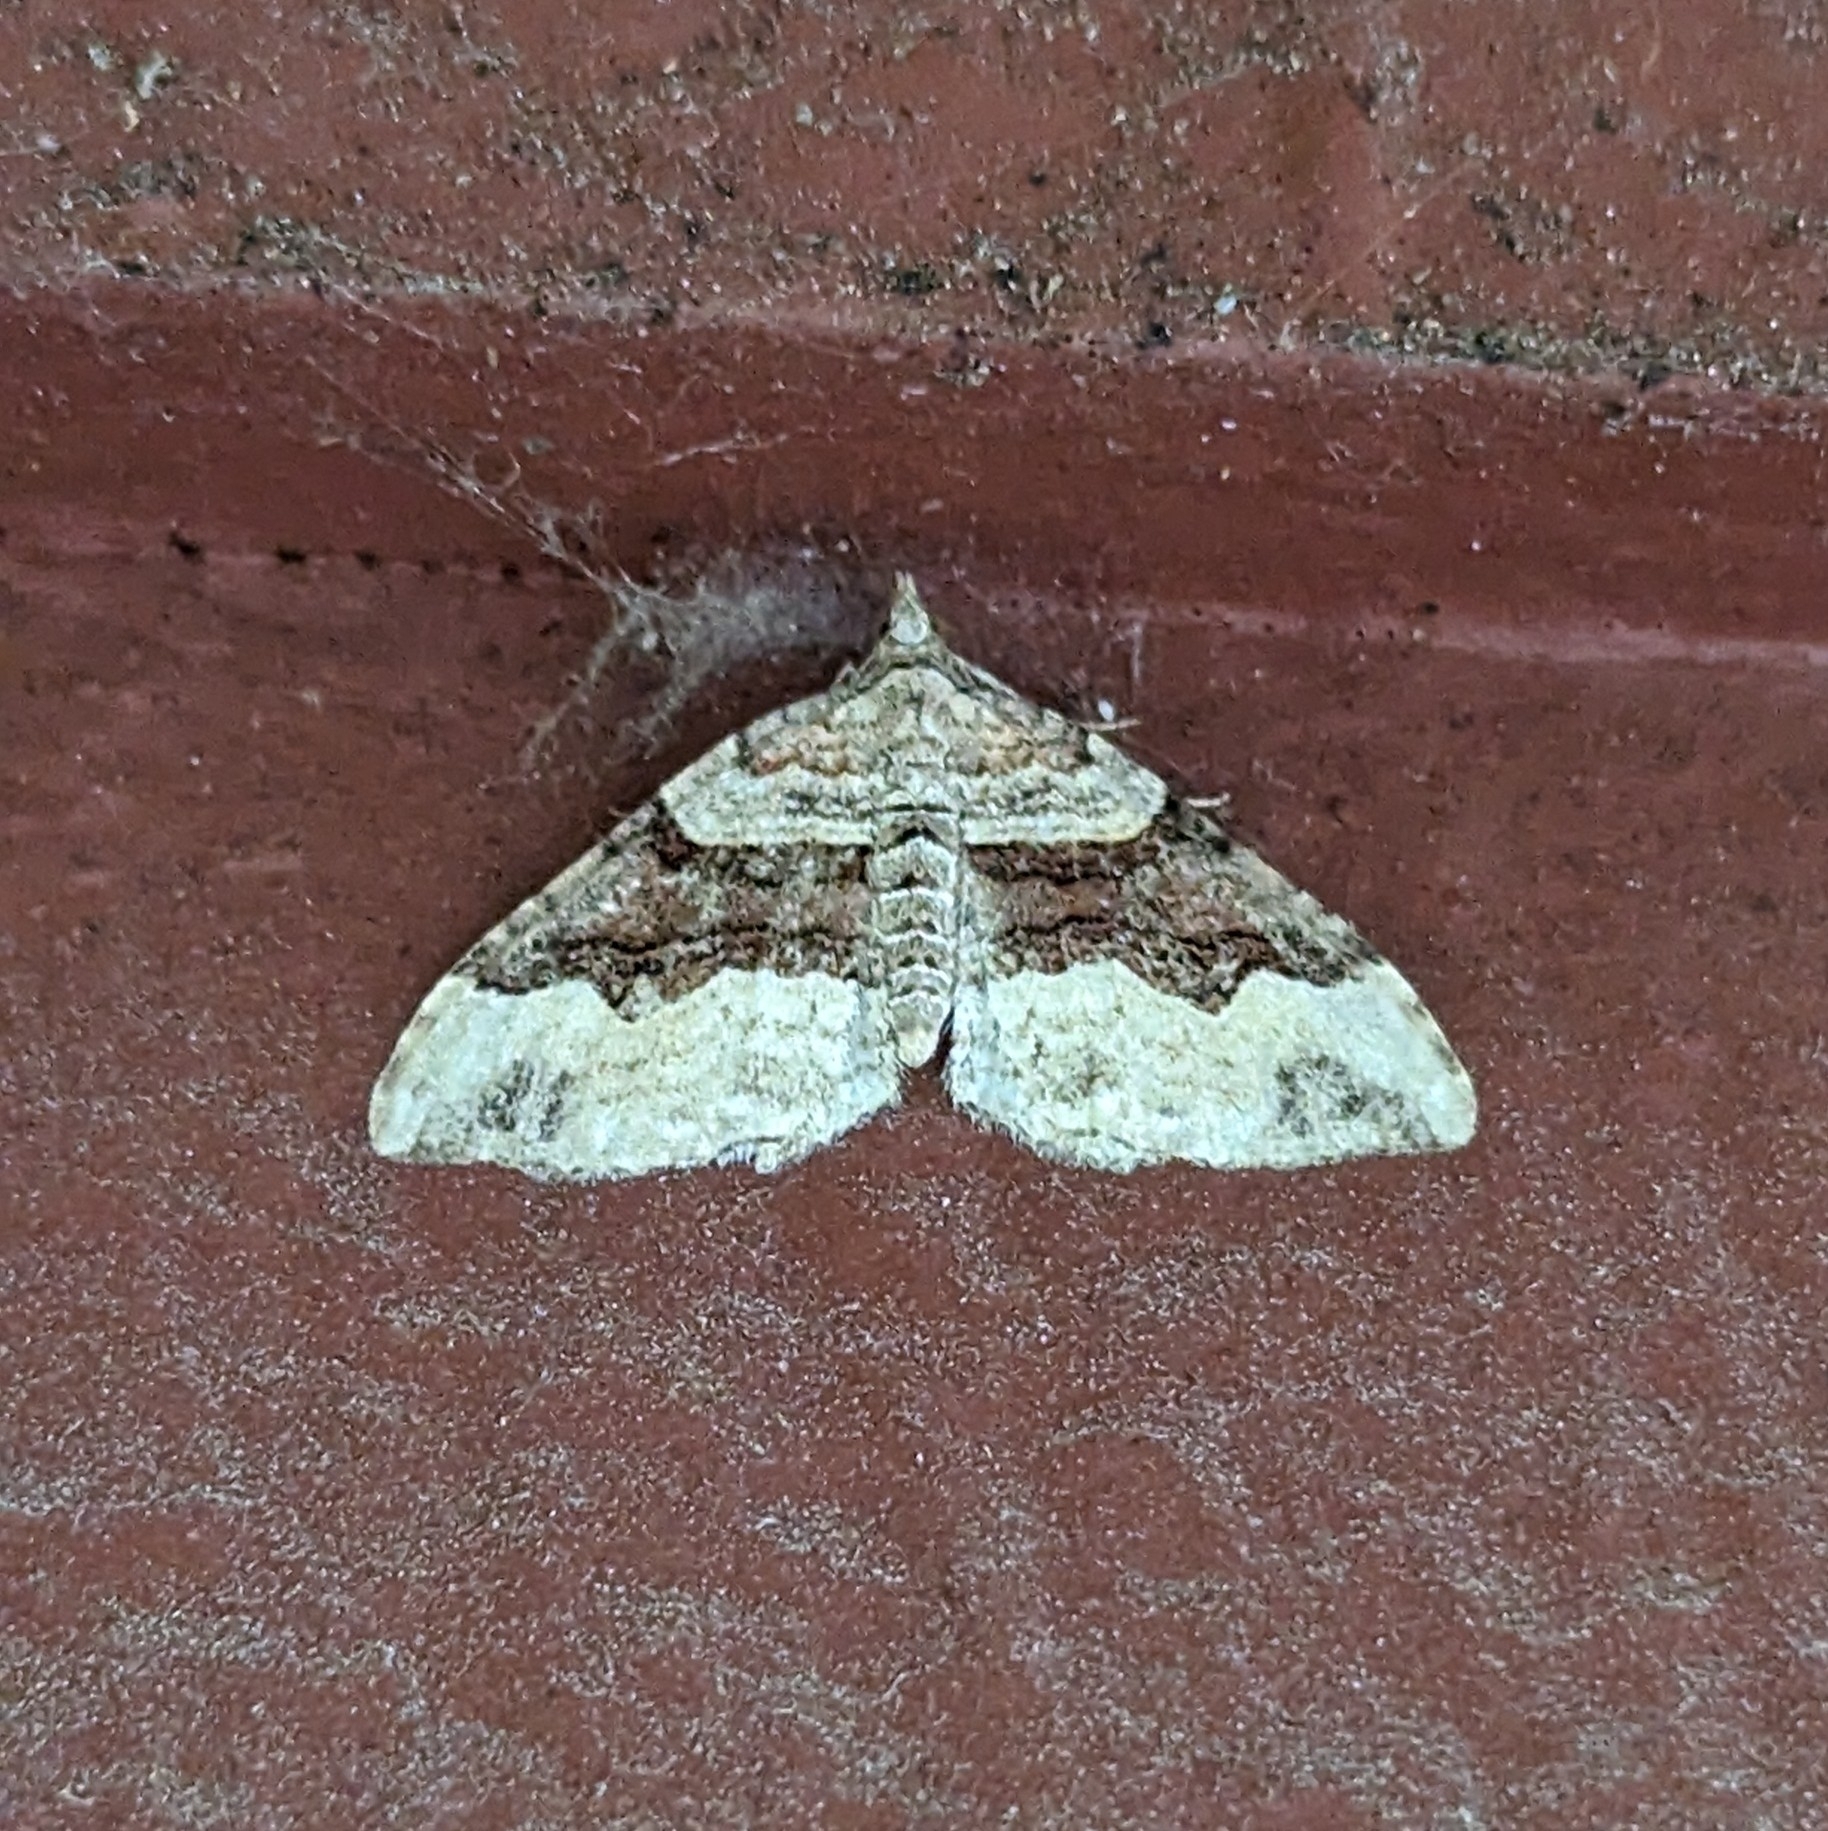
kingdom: Animalia
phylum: Arthropoda
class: Insecta
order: Lepidoptera
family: Geometridae
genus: Xanthorhoe
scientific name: Xanthorhoe defensaria
